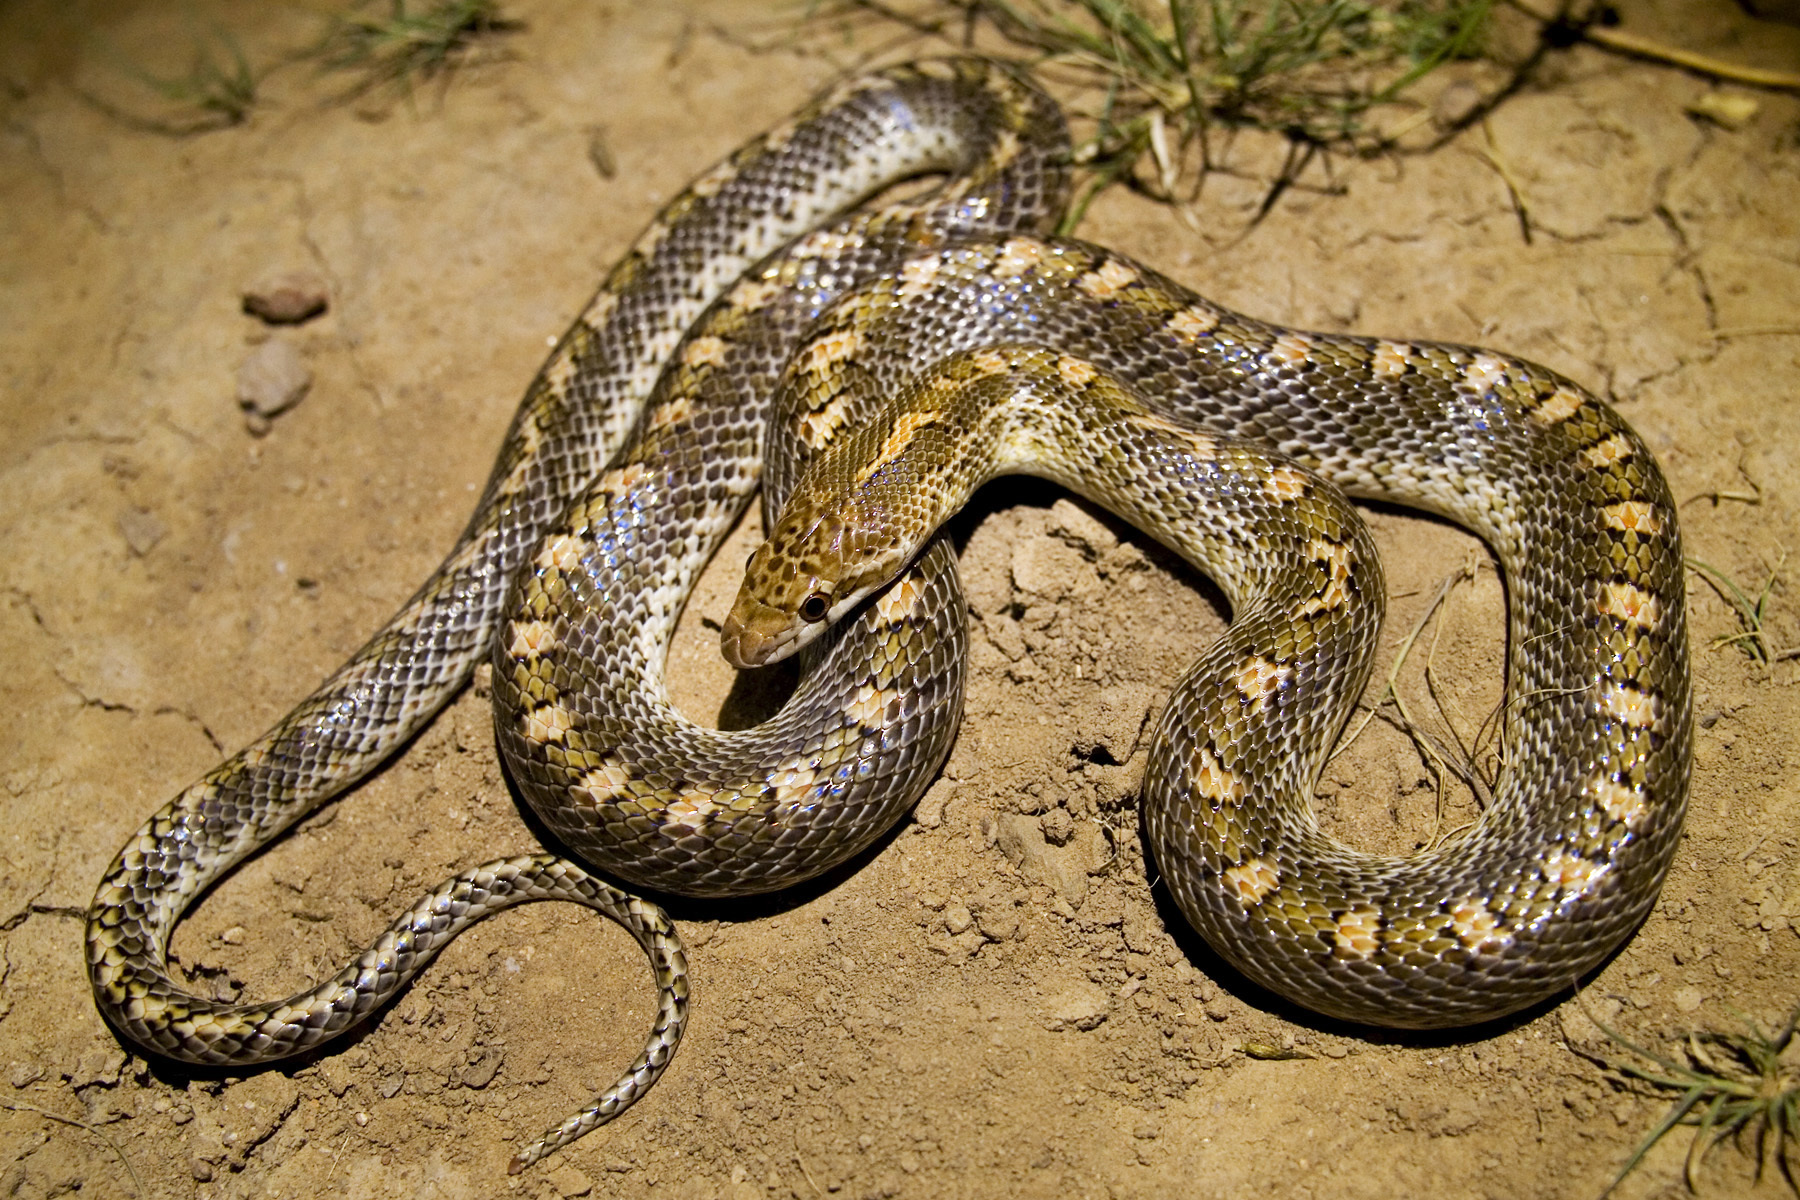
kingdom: Animalia
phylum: Chordata
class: Squamata
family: Colubridae
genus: Arizona
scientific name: Arizona elegans
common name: Glossy snake
